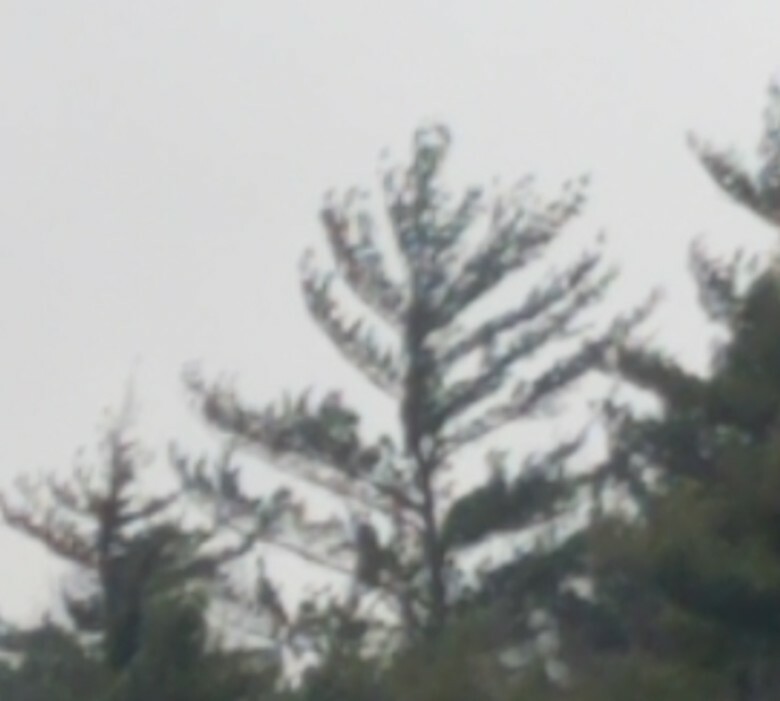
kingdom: Plantae
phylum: Tracheophyta
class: Pinopsida
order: Pinales
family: Pinaceae
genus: Pinus
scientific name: Pinus strobus
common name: Weymouth pine
